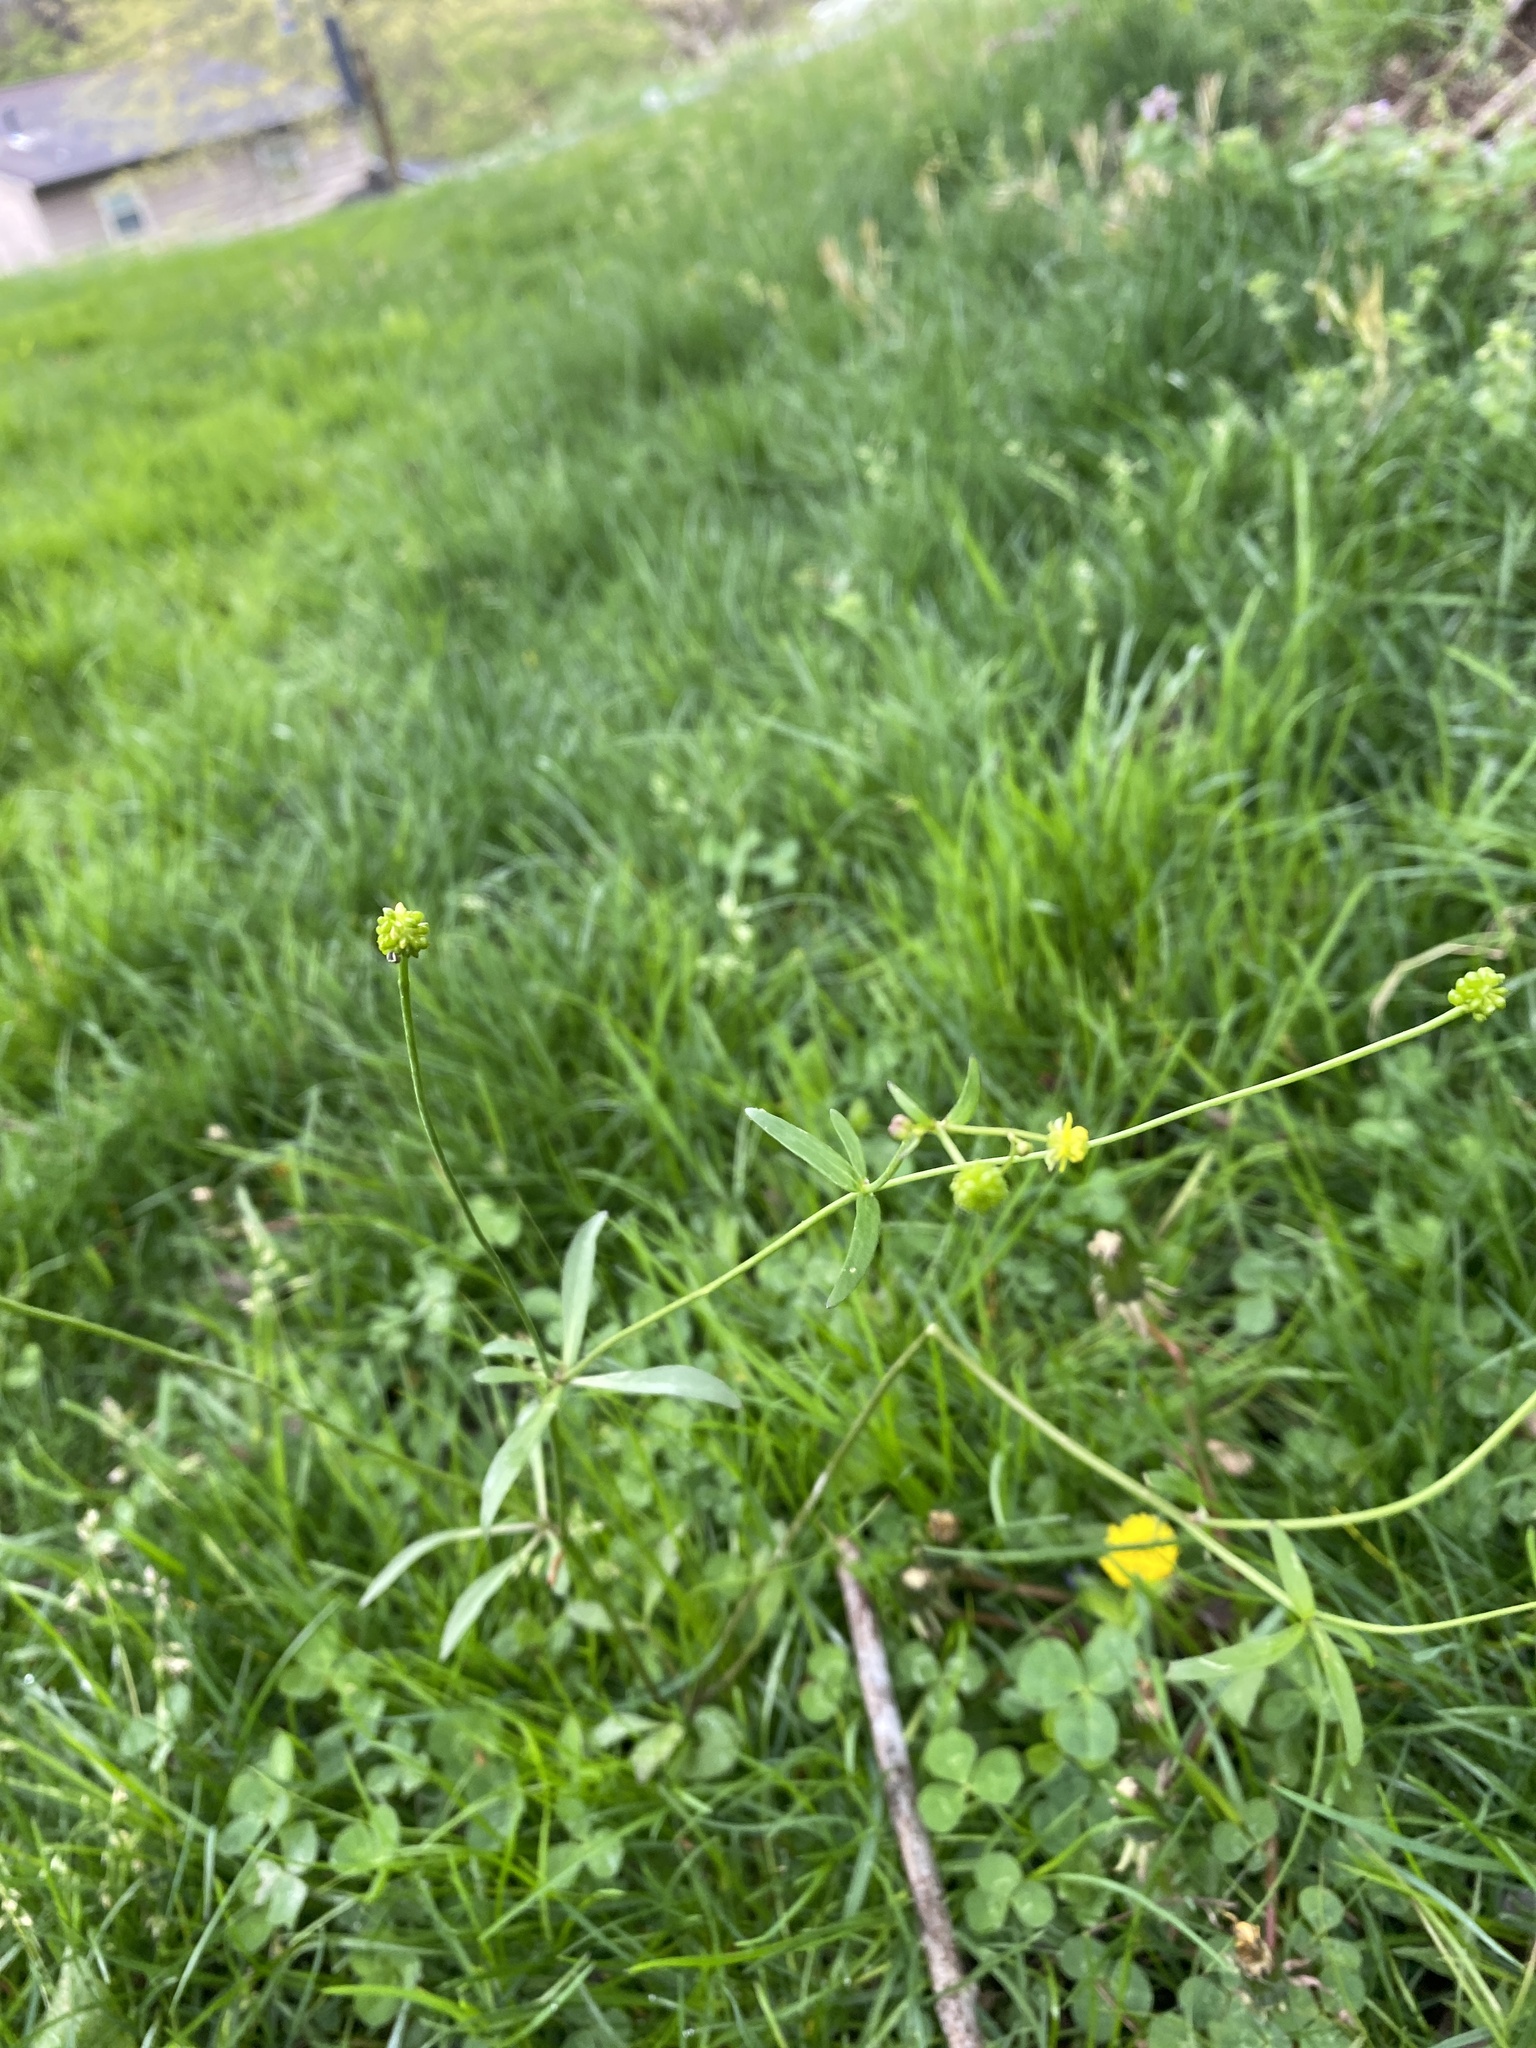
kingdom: Plantae
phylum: Tracheophyta
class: Magnoliopsida
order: Ranunculales
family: Ranunculaceae
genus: Ranunculus
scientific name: Ranunculus abortivus
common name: Early wood buttercup
